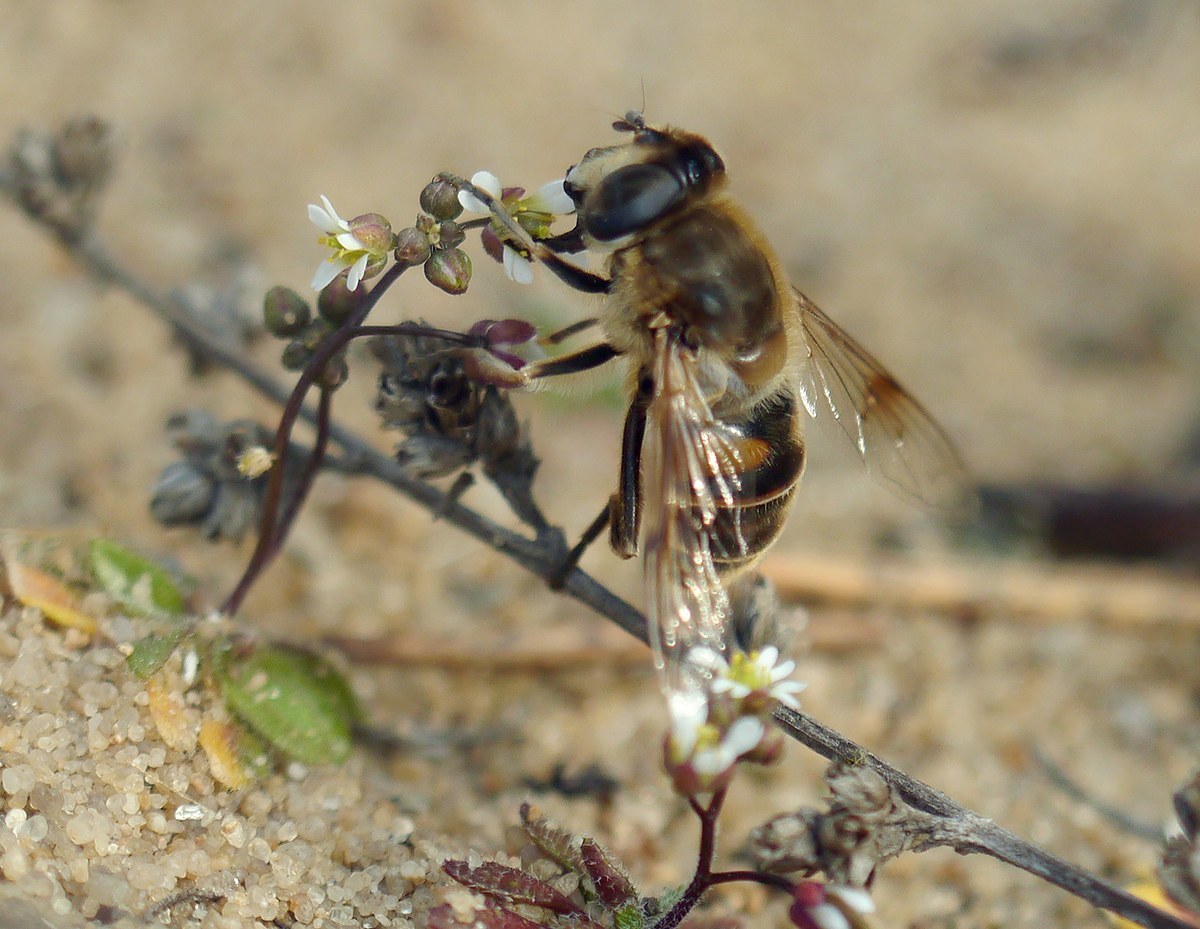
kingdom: Animalia
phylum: Arthropoda
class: Insecta
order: Diptera
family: Syrphidae
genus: Eristalis
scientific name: Eristalis tenax
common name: Drone fly
